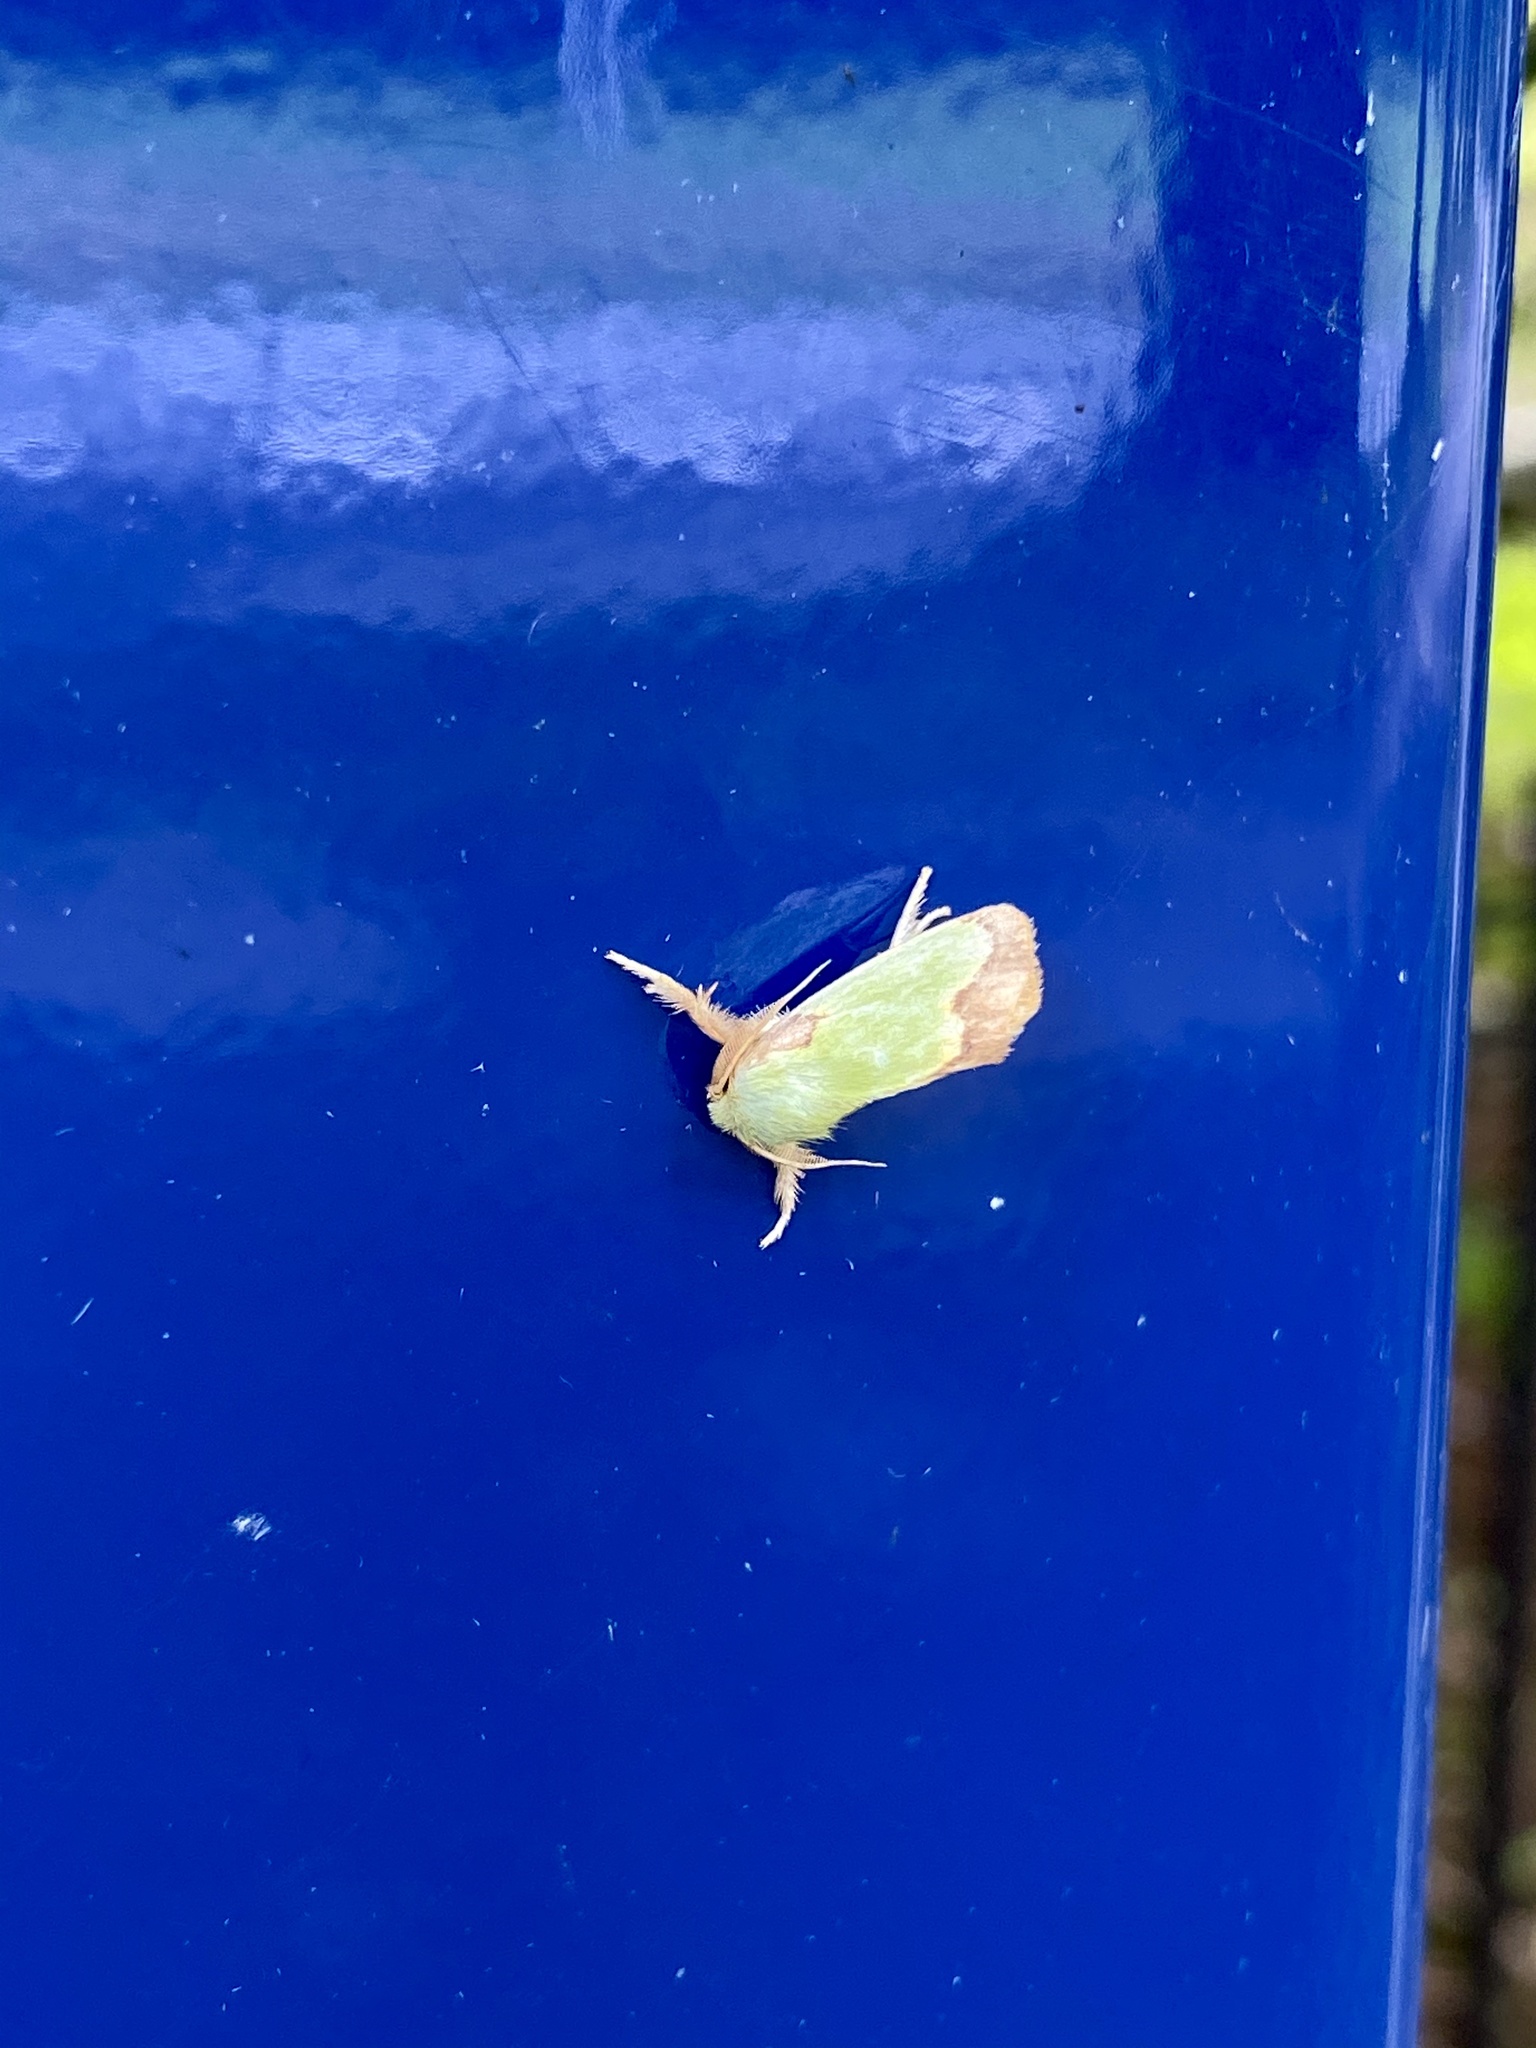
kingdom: Animalia
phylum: Arthropoda
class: Insecta
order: Lepidoptera
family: Limacodidae
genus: Parasa
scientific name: Parasa hilarula
